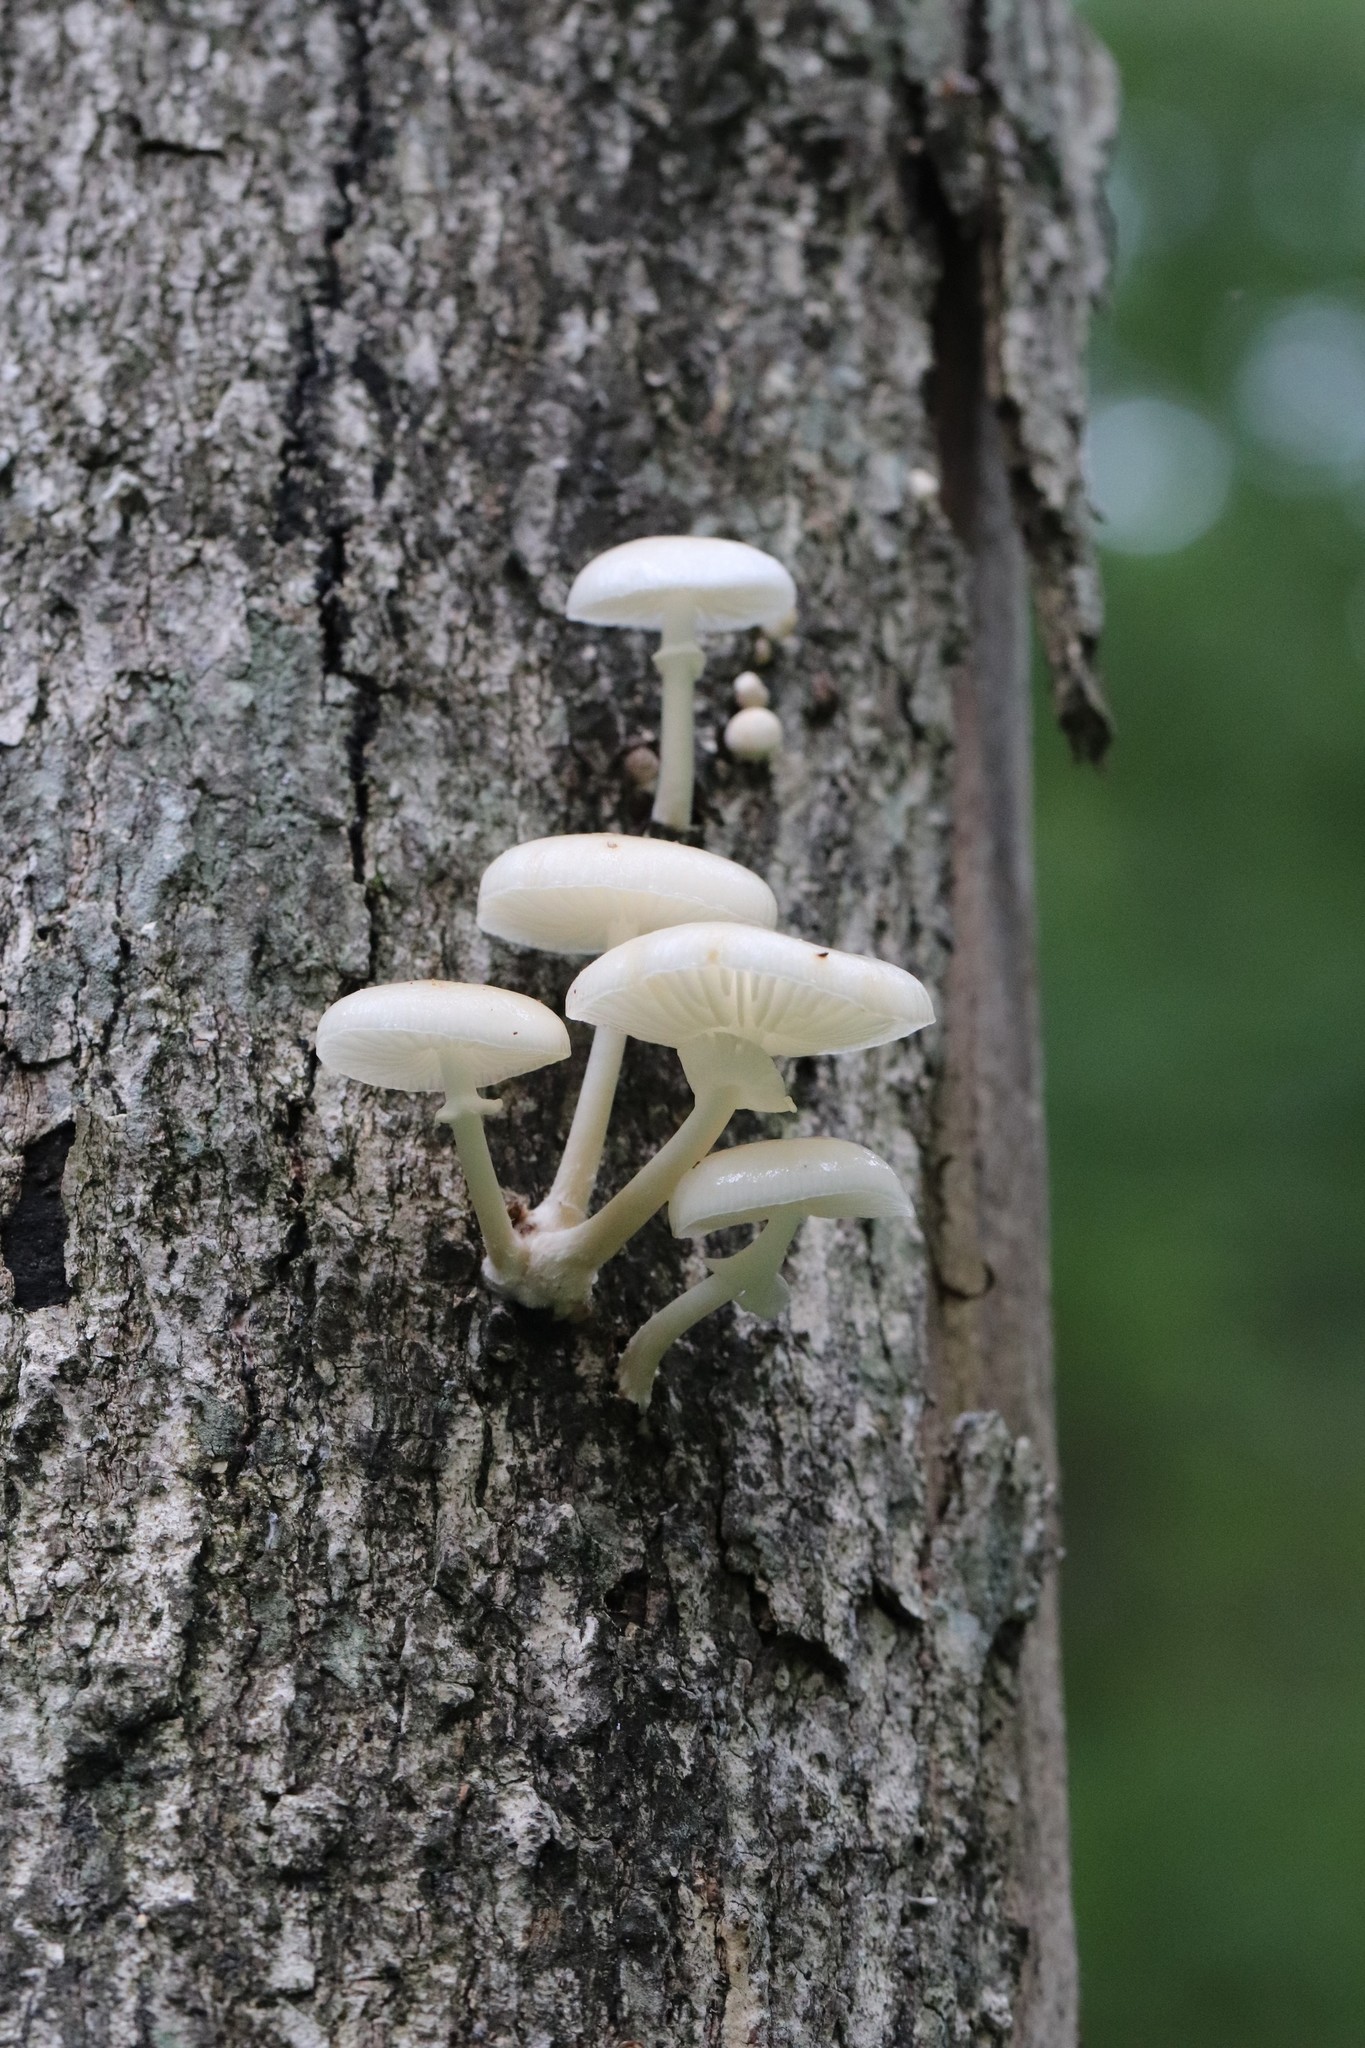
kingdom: Fungi
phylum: Basidiomycota
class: Agaricomycetes
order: Agaricales
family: Physalacriaceae
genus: Mucidula
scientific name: Mucidula mucida
